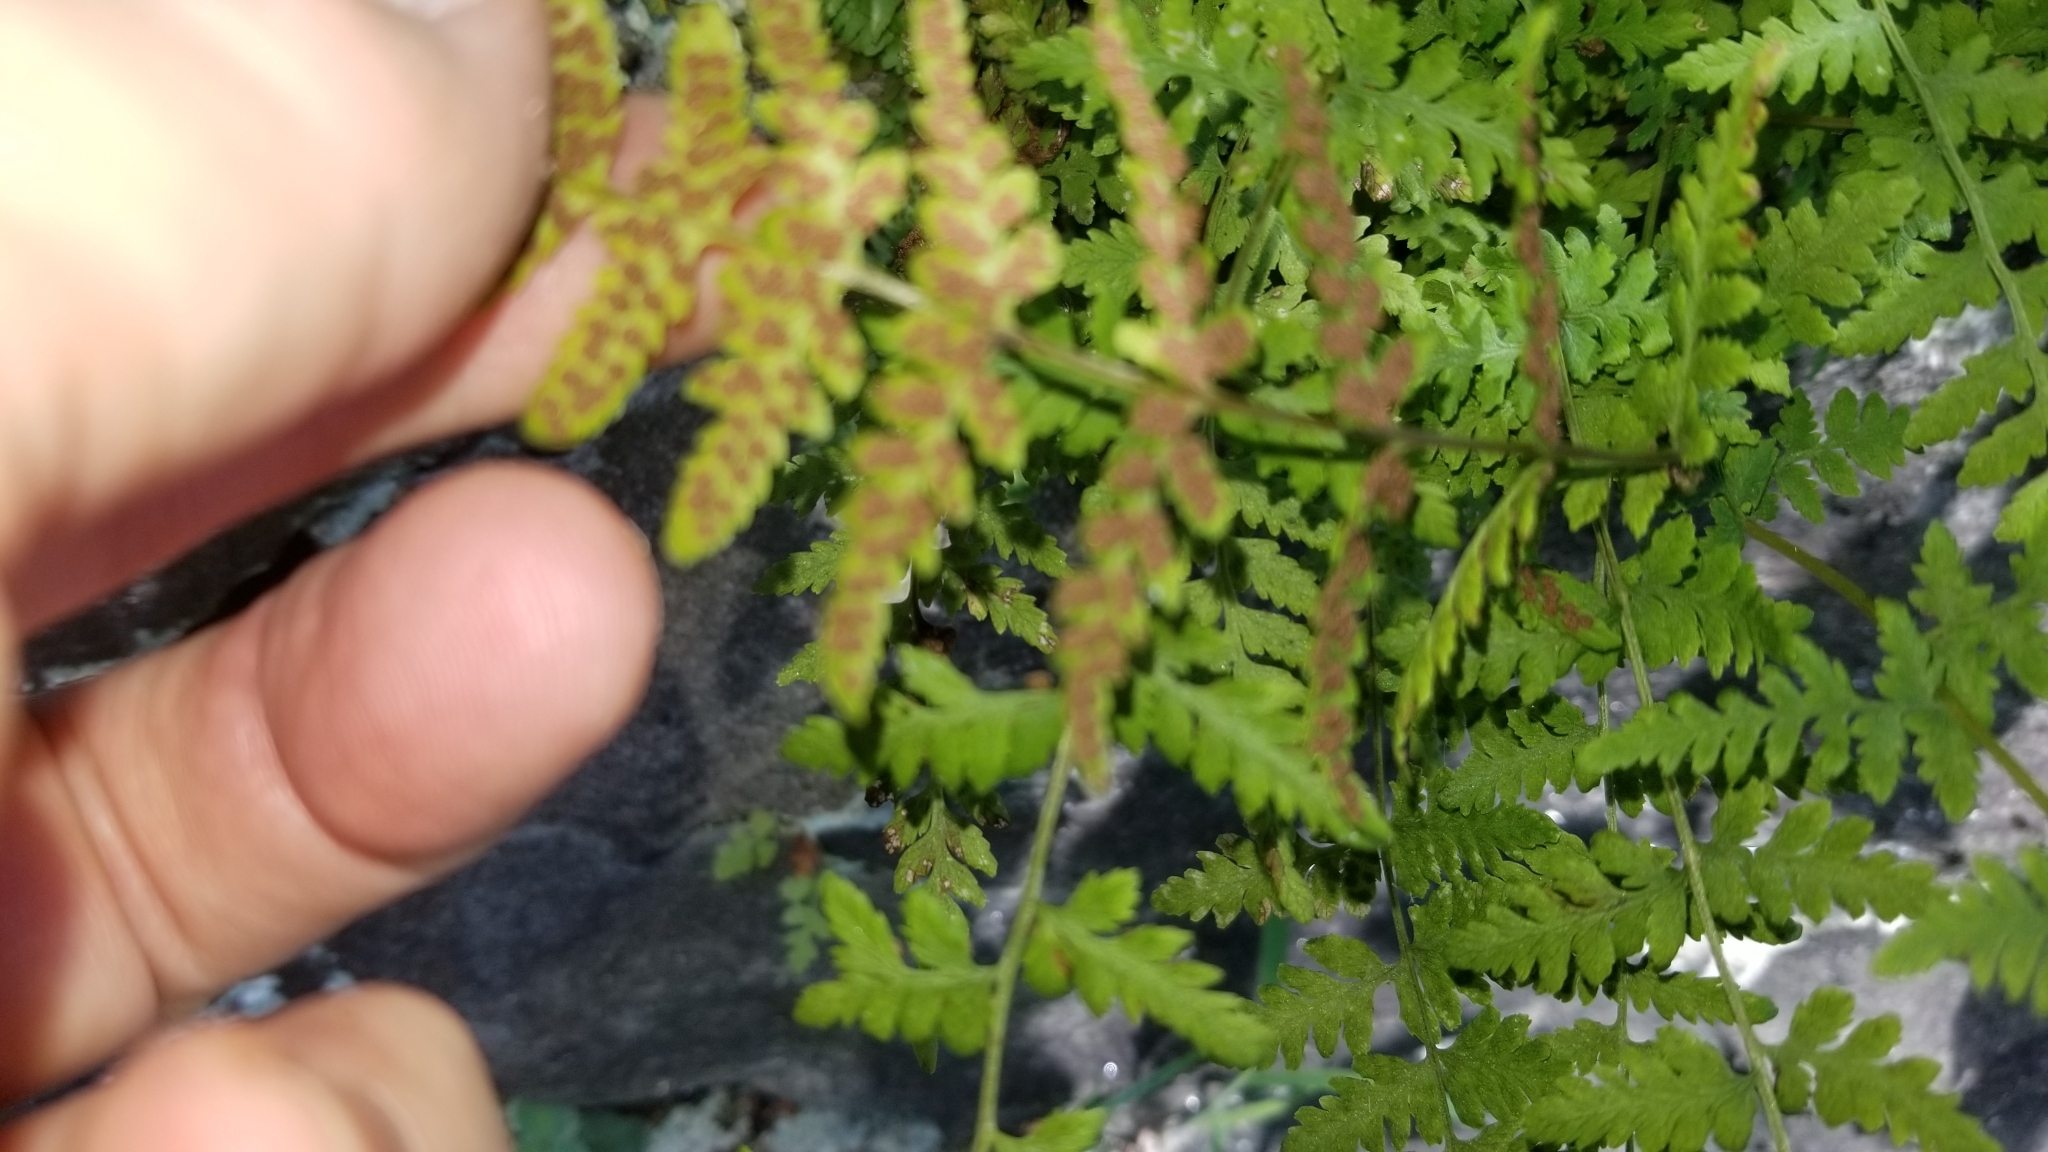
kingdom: Plantae
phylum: Tracheophyta
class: Polypodiopsida
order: Polypodiales
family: Cystopteridaceae
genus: Cystopteris
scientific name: Cystopteris tennesseensis
